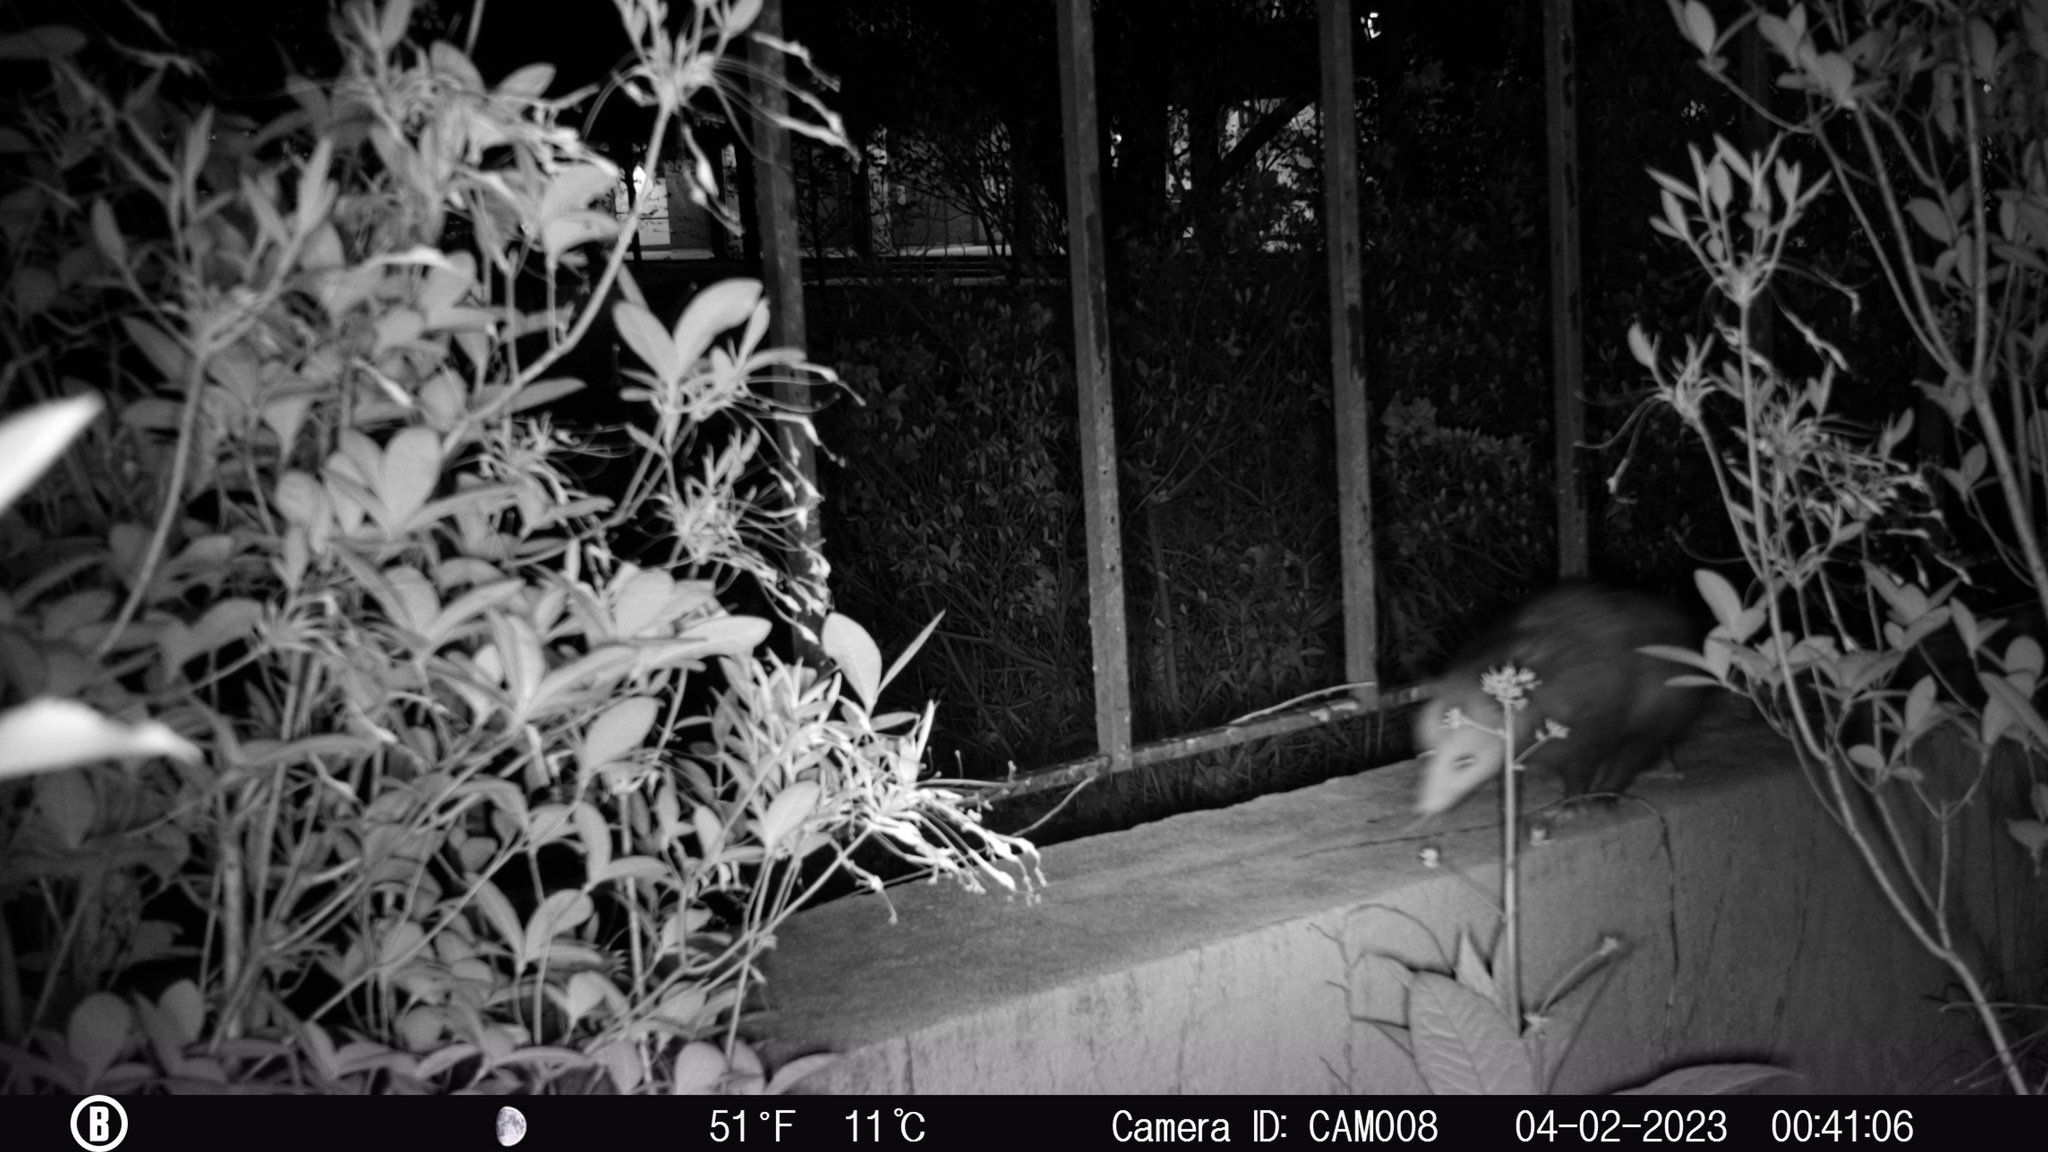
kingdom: Animalia
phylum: Chordata
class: Mammalia
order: Didelphimorphia
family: Didelphidae
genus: Didelphis
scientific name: Didelphis virginiana
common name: Virginia opossum
